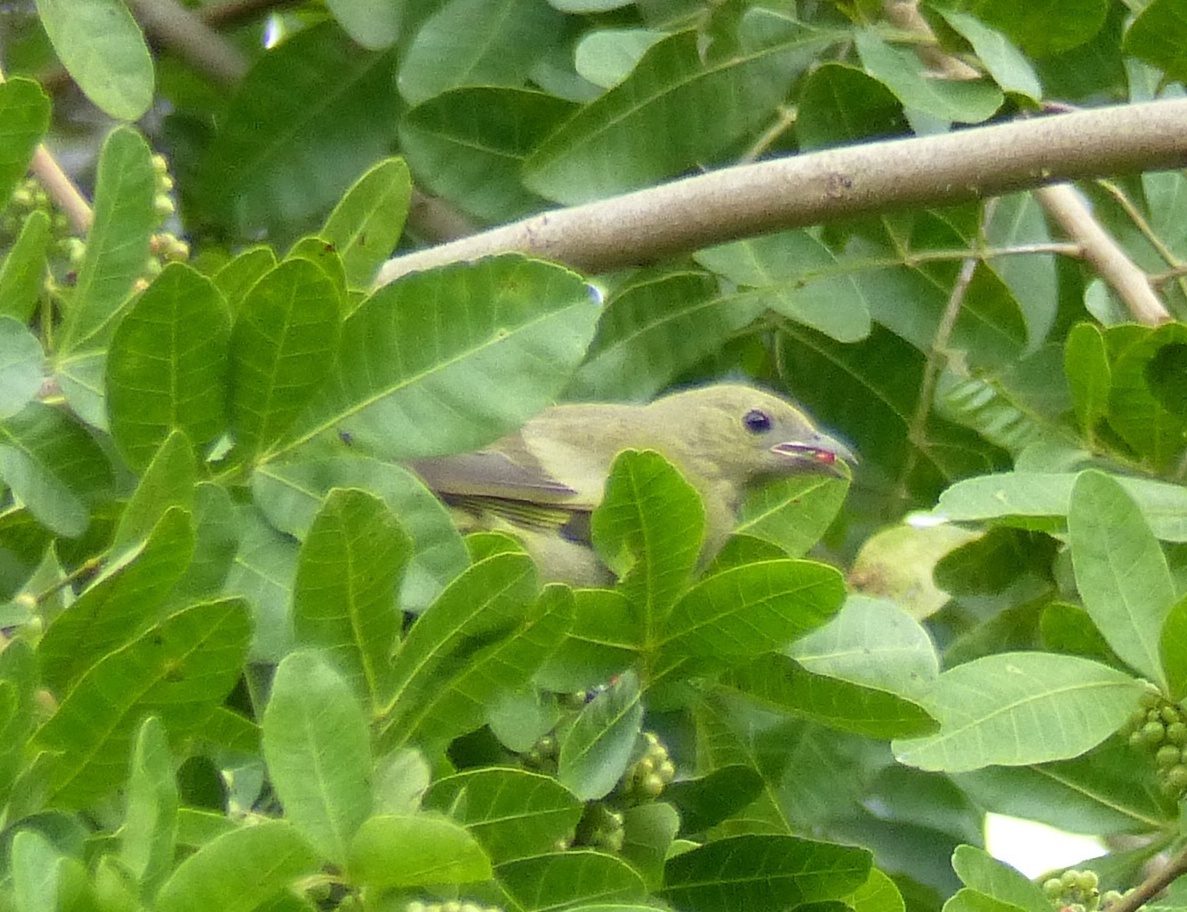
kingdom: Animalia
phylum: Chordata
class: Aves
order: Passeriformes
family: Thraupidae
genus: Thraupis
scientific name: Thraupis palmarum
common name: Palm tanager
